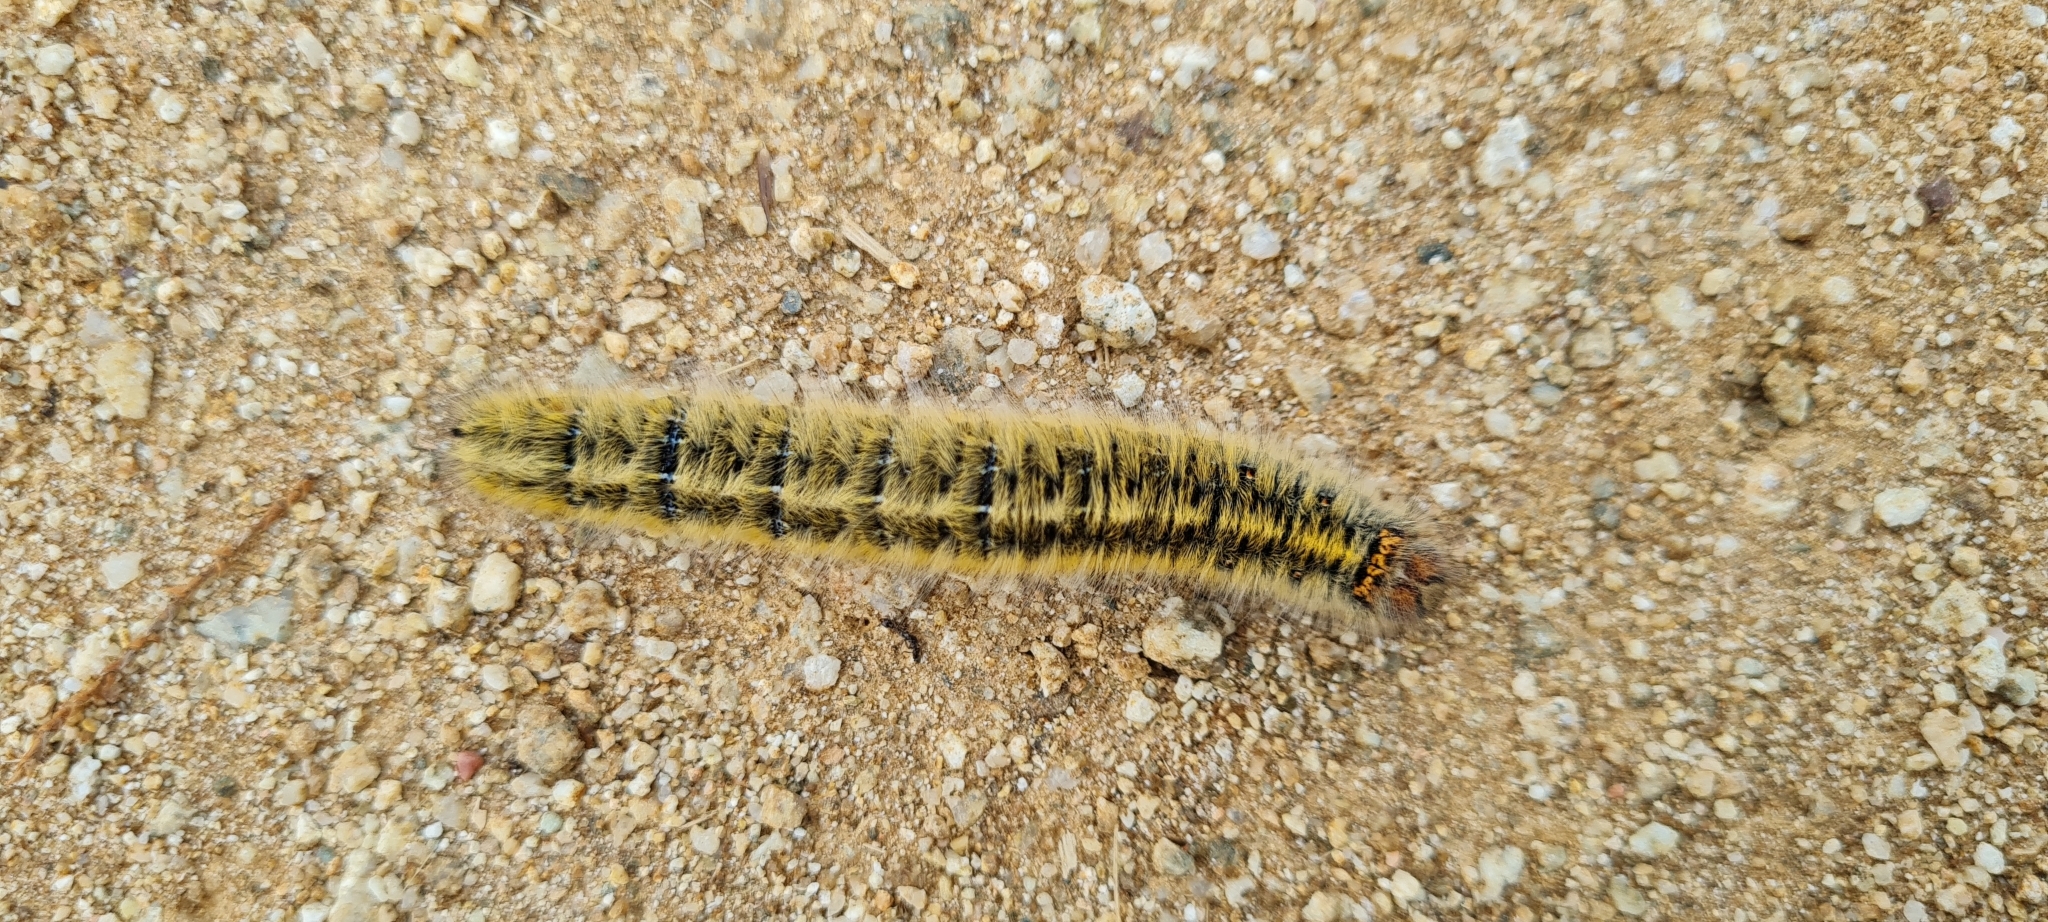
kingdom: Animalia
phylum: Arthropoda
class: Insecta
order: Lepidoptera
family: Lasiocampidae
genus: Lasiocampa
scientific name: Lasiocampa trifolii
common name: Grass eggar
